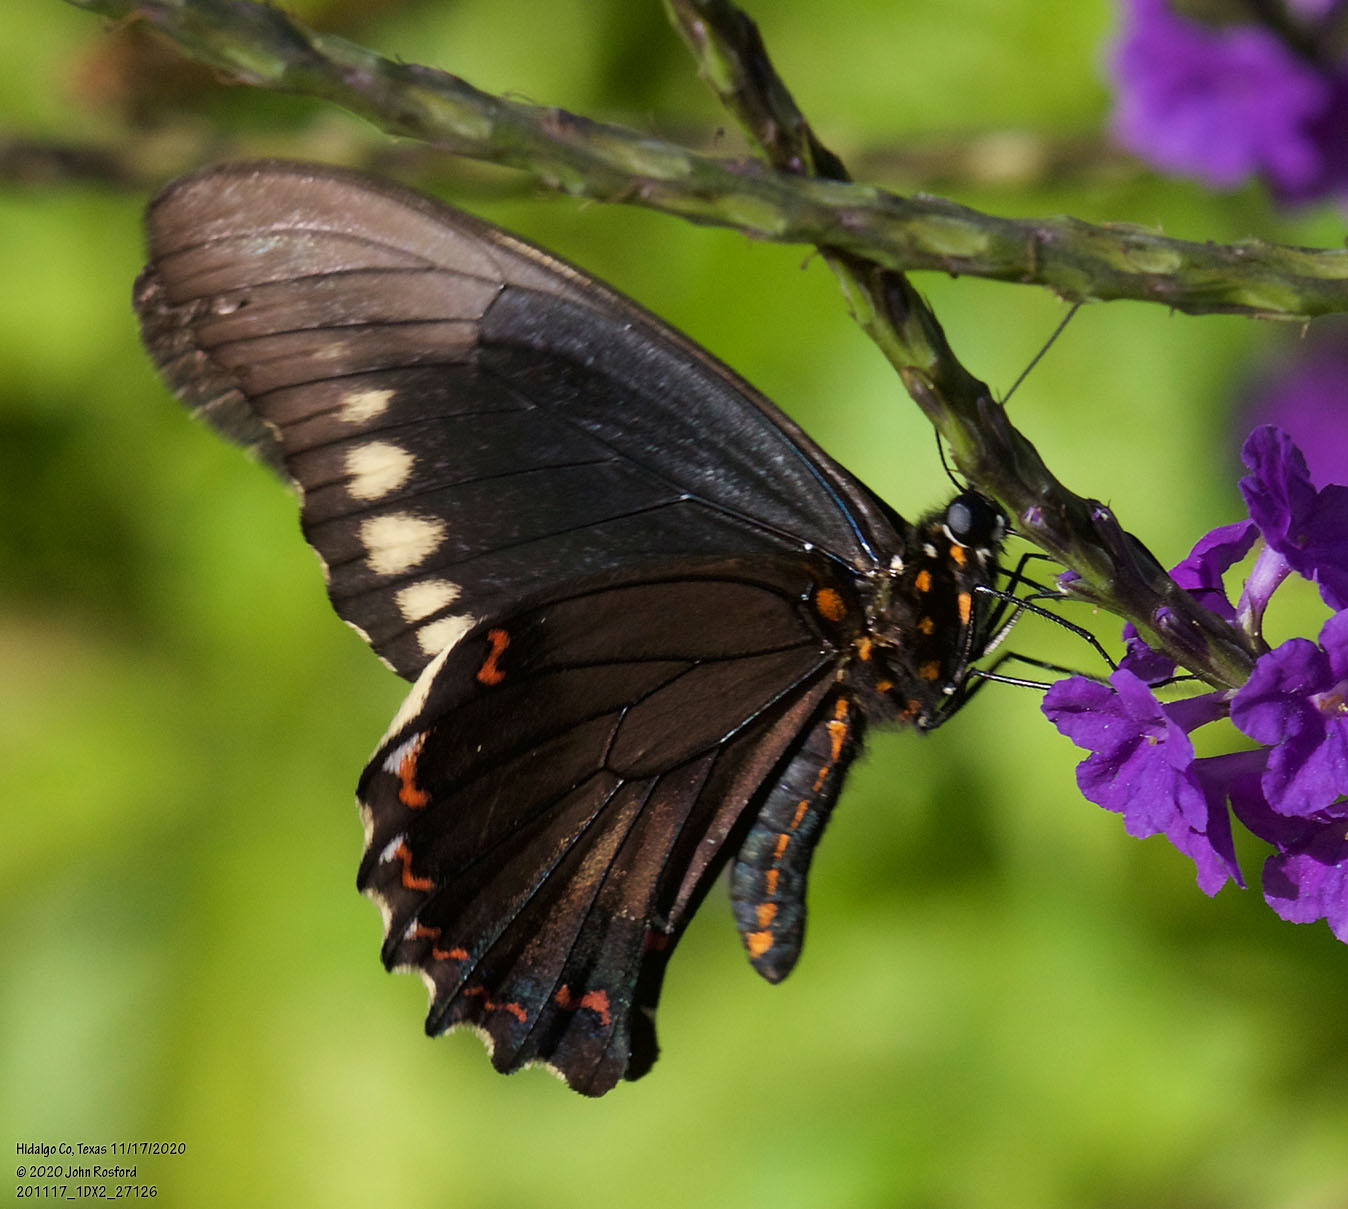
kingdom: Animalia
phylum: Arthropoda
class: Insecta
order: Lepidoptera
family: Papilionidae
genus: Battus
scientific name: Battus polydamas
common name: Polydamas swallowtail
